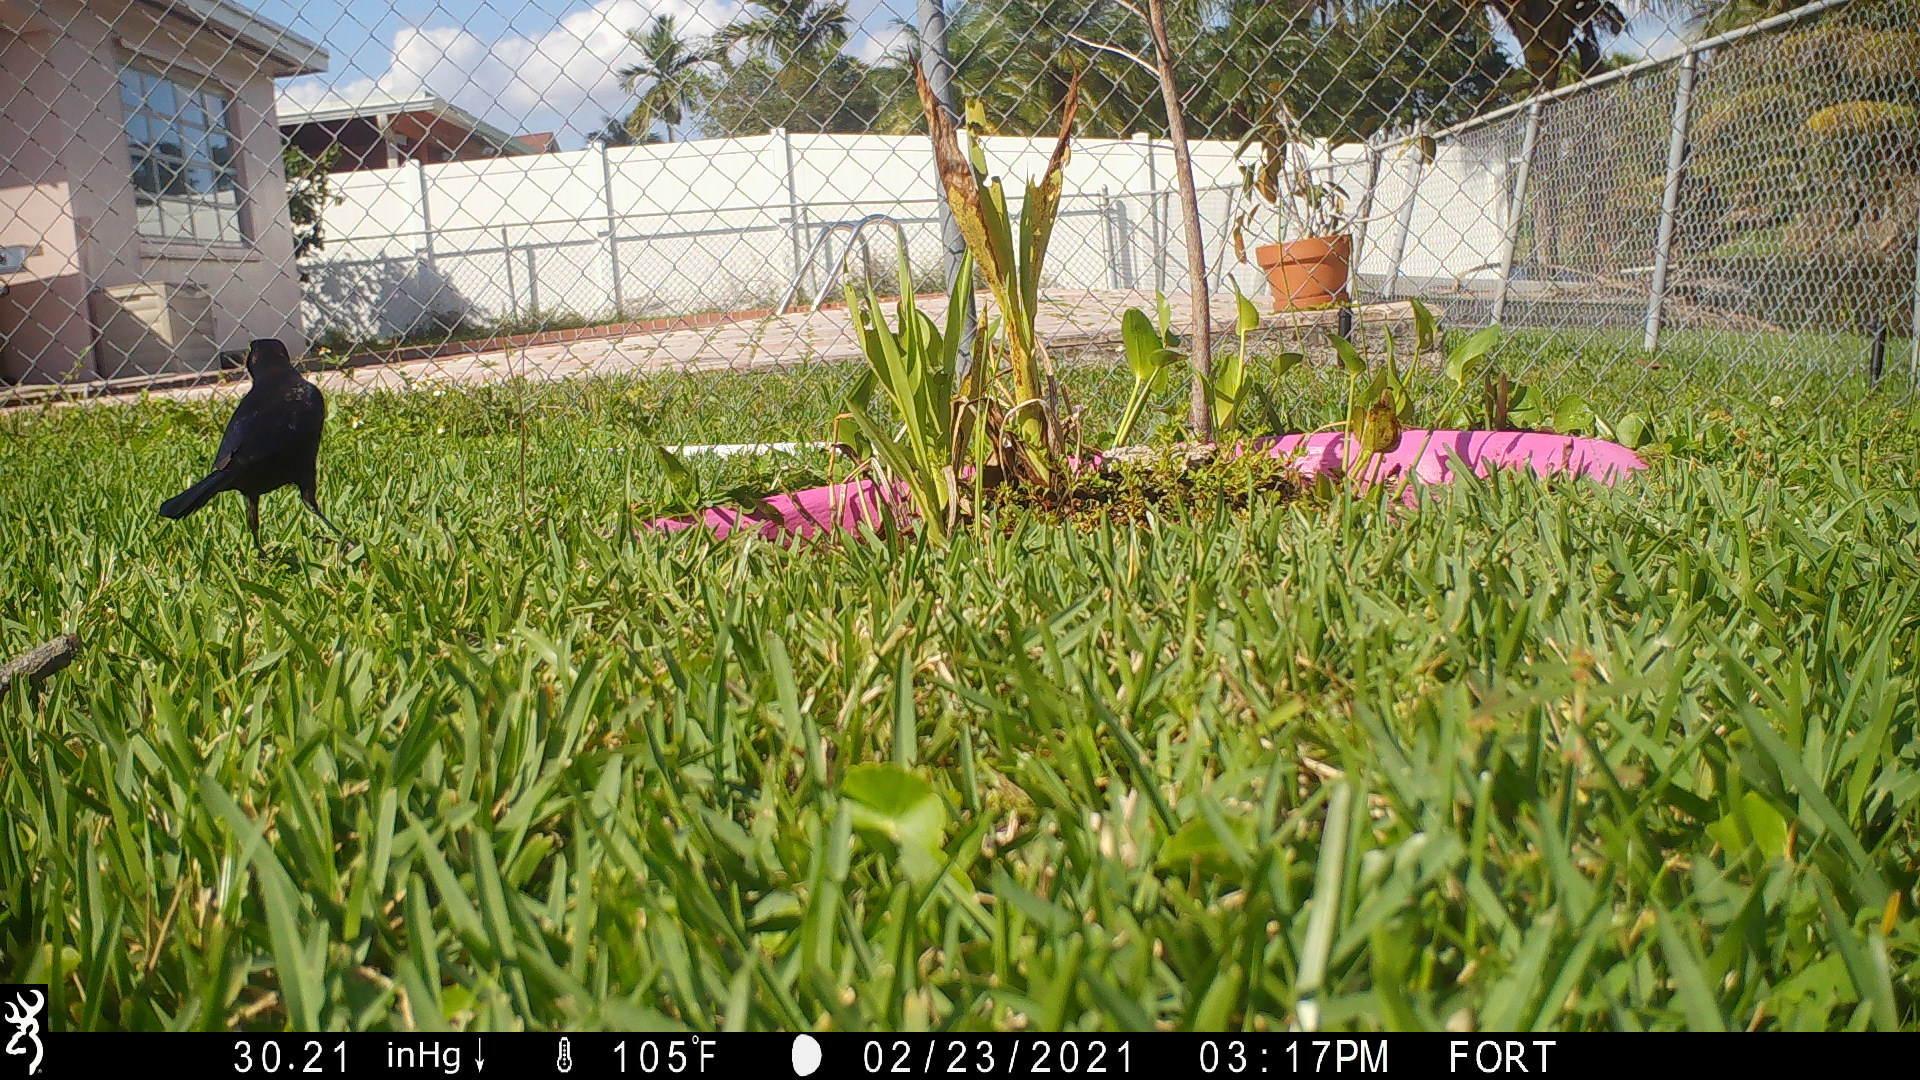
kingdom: Animalia
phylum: Chordata
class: Aves
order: Passeriformes
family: Icteridae
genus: Quiscalus
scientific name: Quiscalus quiscula
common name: Common grackle
